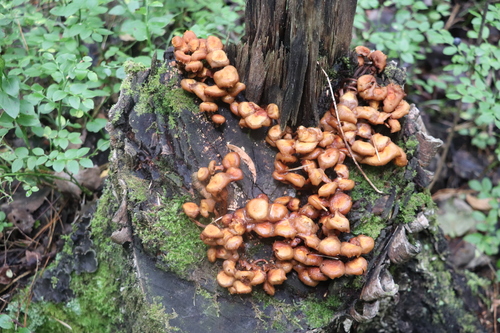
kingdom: Fungi
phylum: Basidiomycota
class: Agaricomycetes
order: Agaricales
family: Strophariaceae
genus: Kuehneromyces
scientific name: Kuehneromyces mutabilis
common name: Sheathed woodtuft
